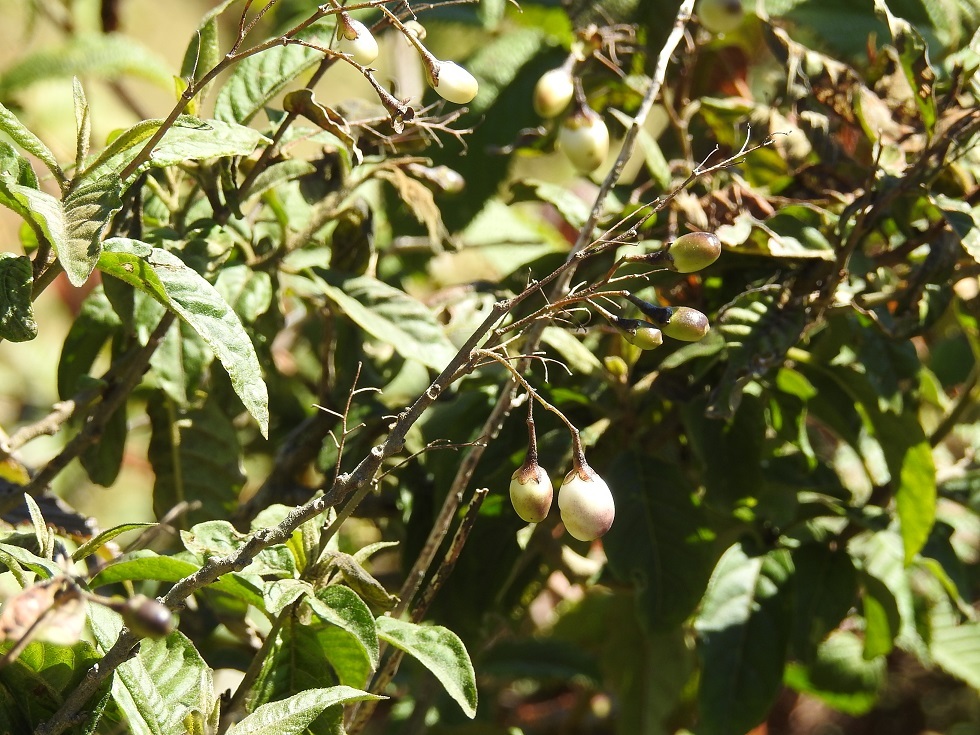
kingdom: Plantae
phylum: Tracheophyta
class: Magnoliopsida
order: Solanales
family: Solanaceae
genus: Cestrum
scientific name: Cestrum aurantiacum
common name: Orange cestrum
